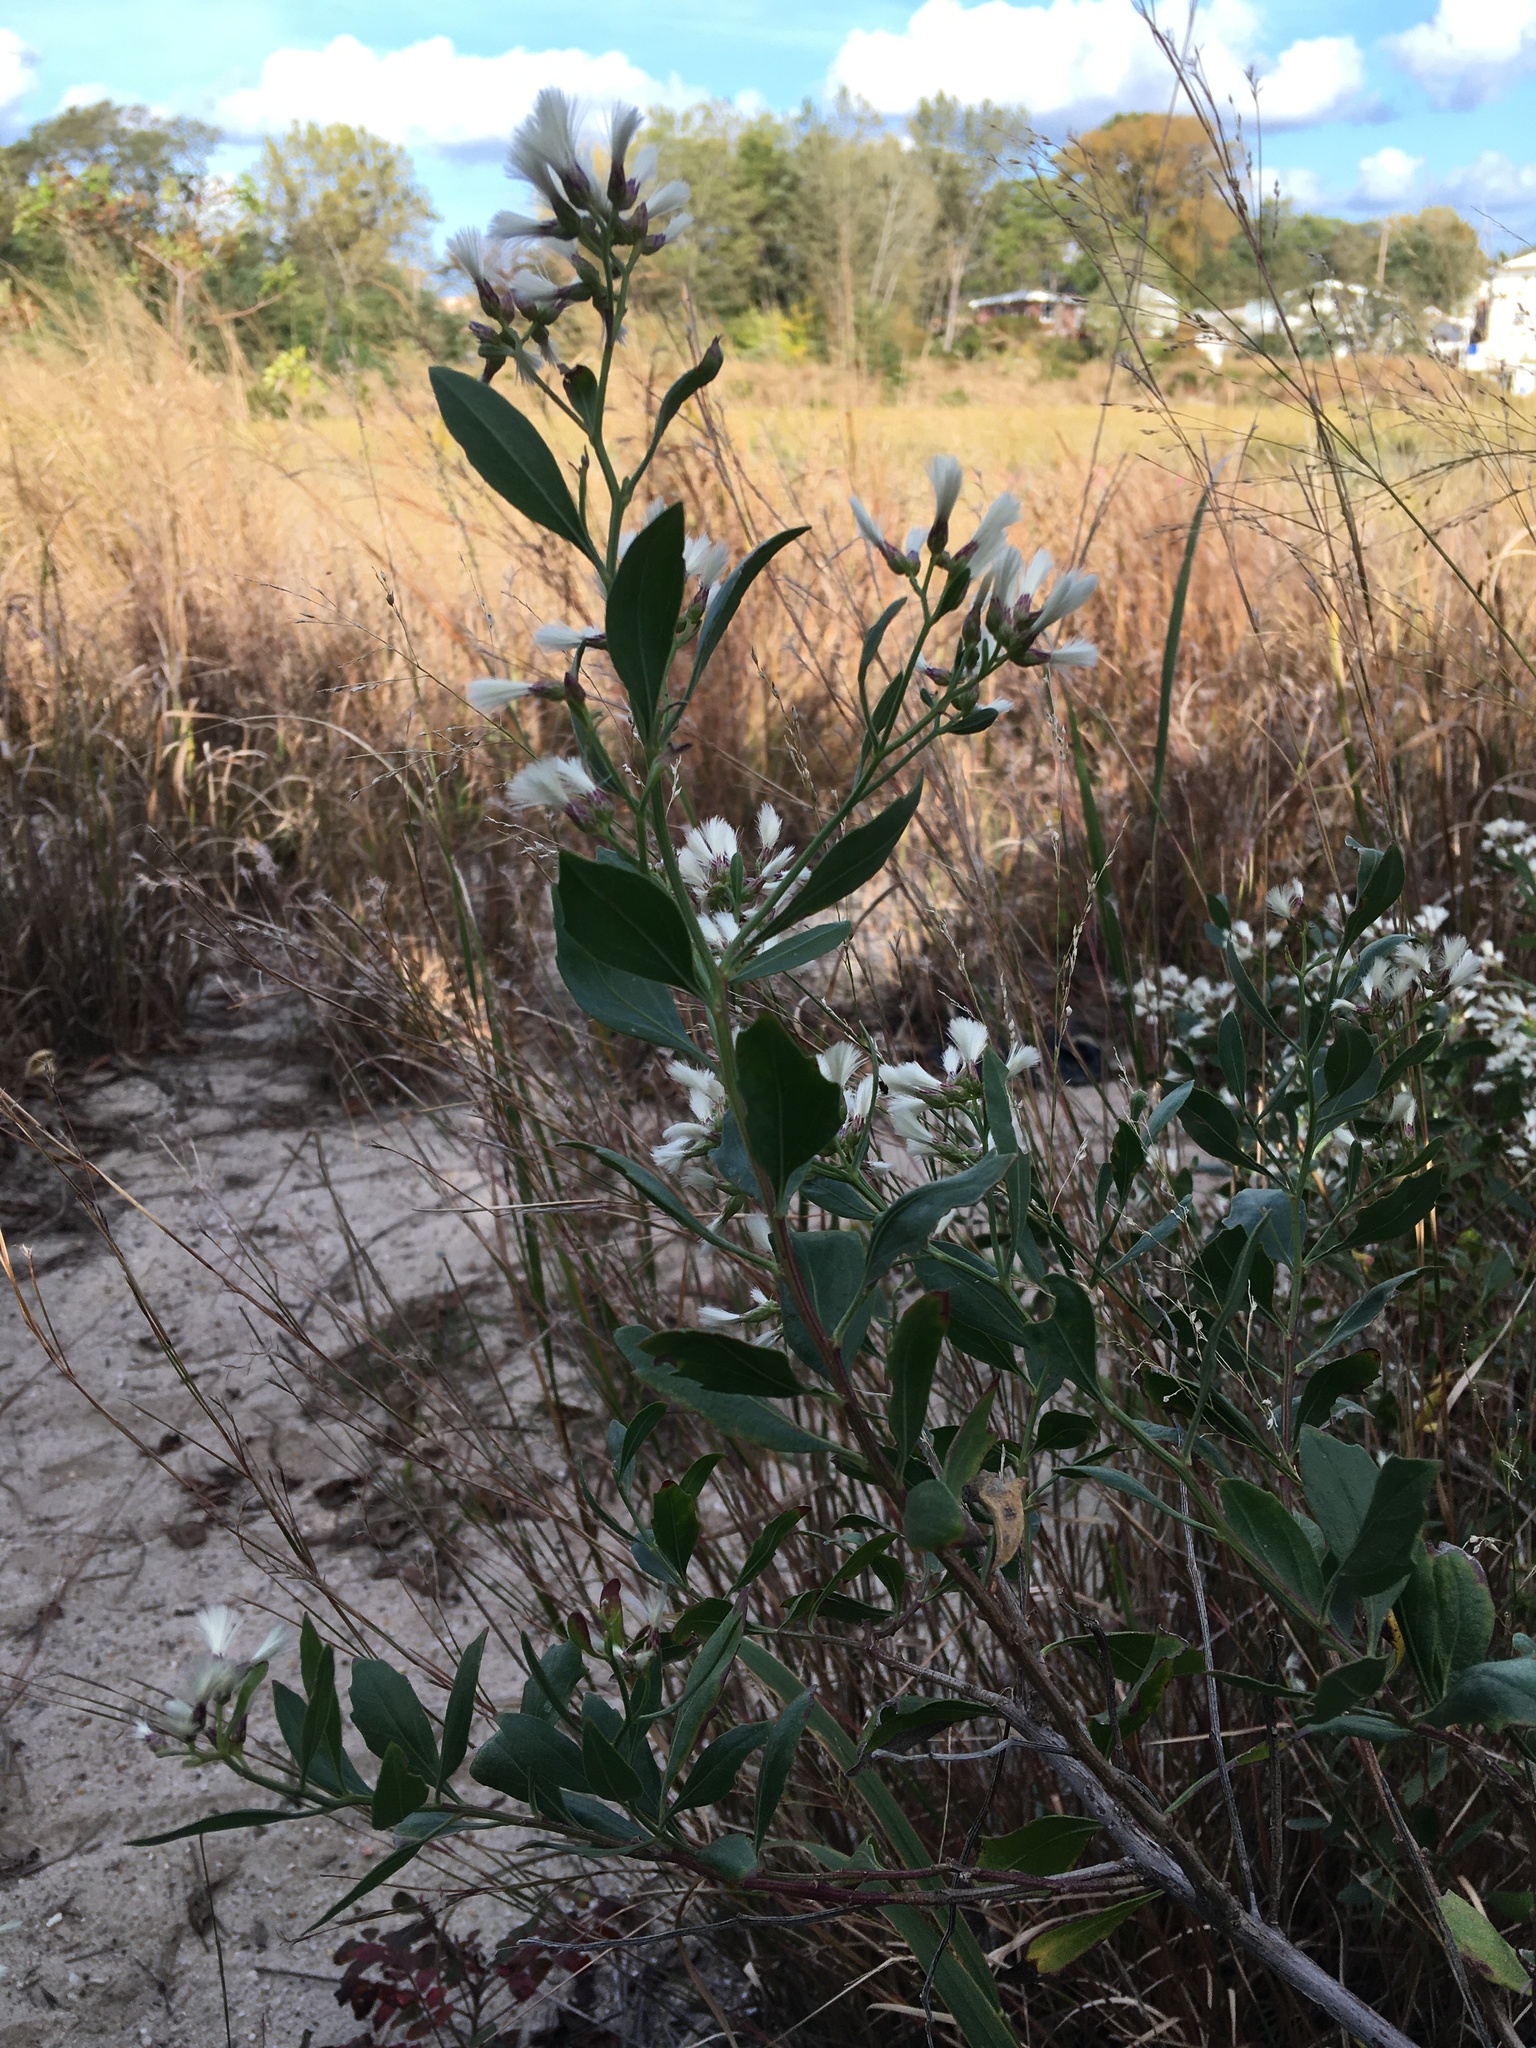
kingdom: Plantae
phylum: Tracheophyta
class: Magnoliopsida
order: Asterales
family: Asteraceae
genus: Baccharis
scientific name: Baccharis halimifolia
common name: Eastern baccharis
